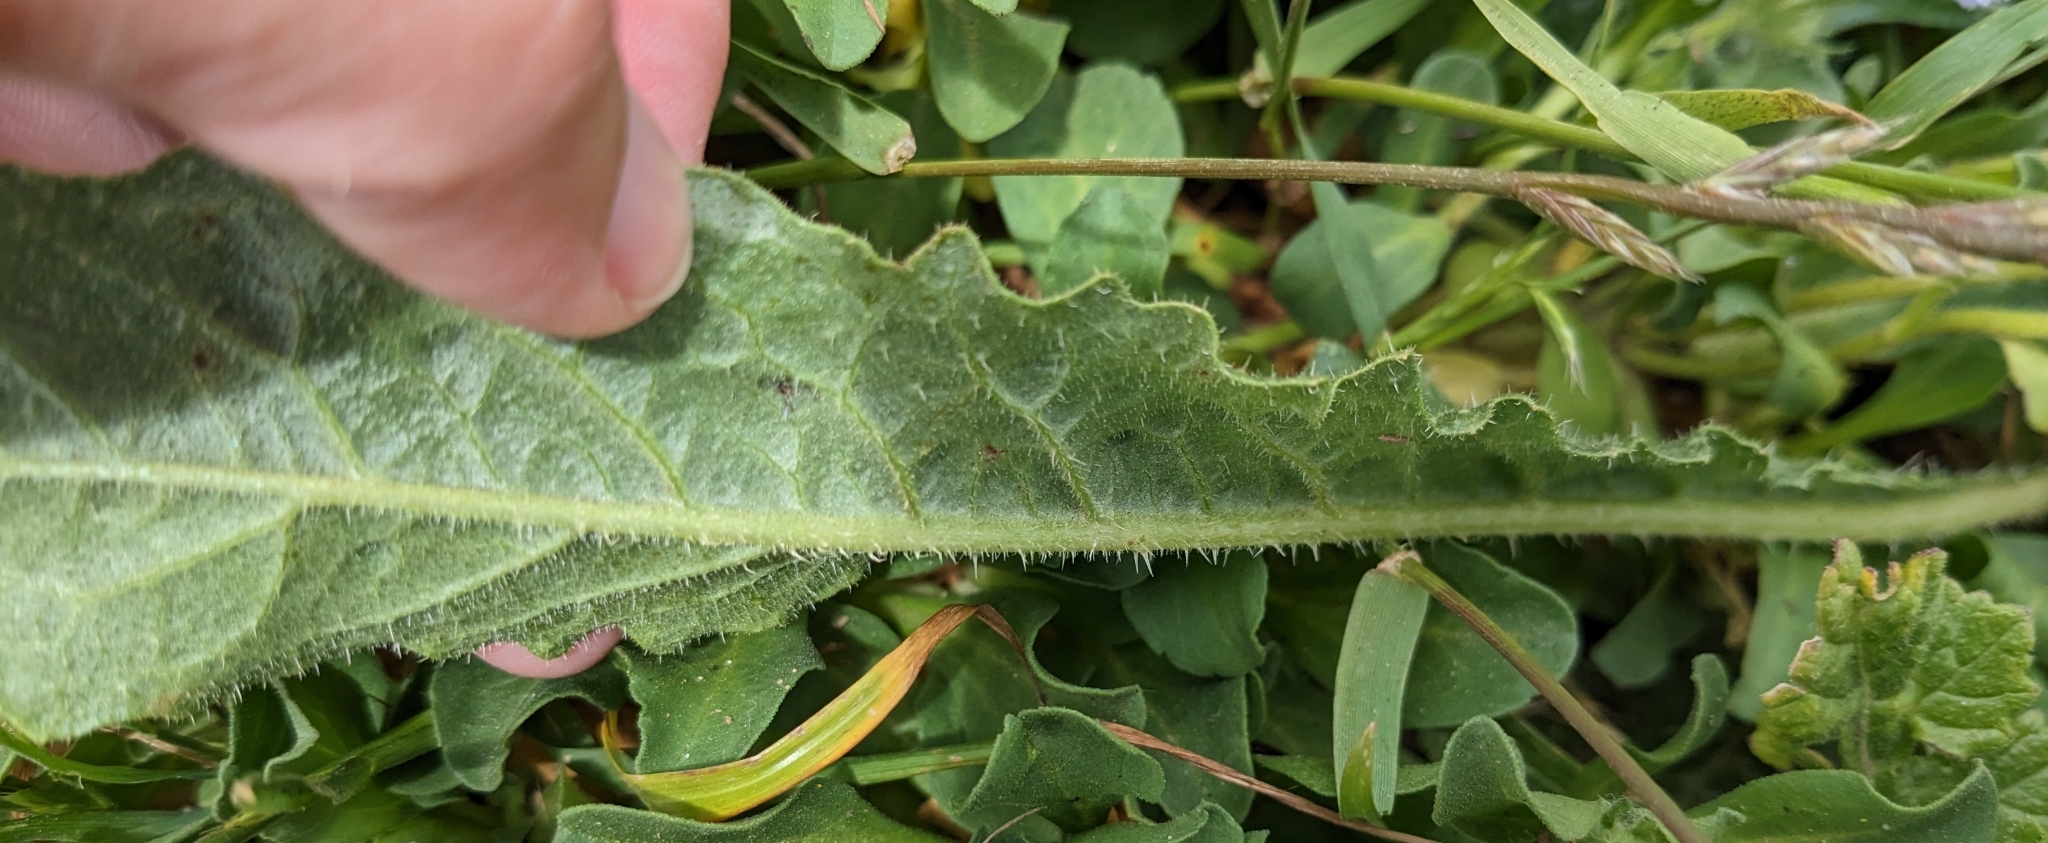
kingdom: Plantae
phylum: Tracheophyta
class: Magnoliopsida
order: Asterales
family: Asteraceae
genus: Helminthotheca
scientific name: Helminthotheca echioides
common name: Ox-tongue
